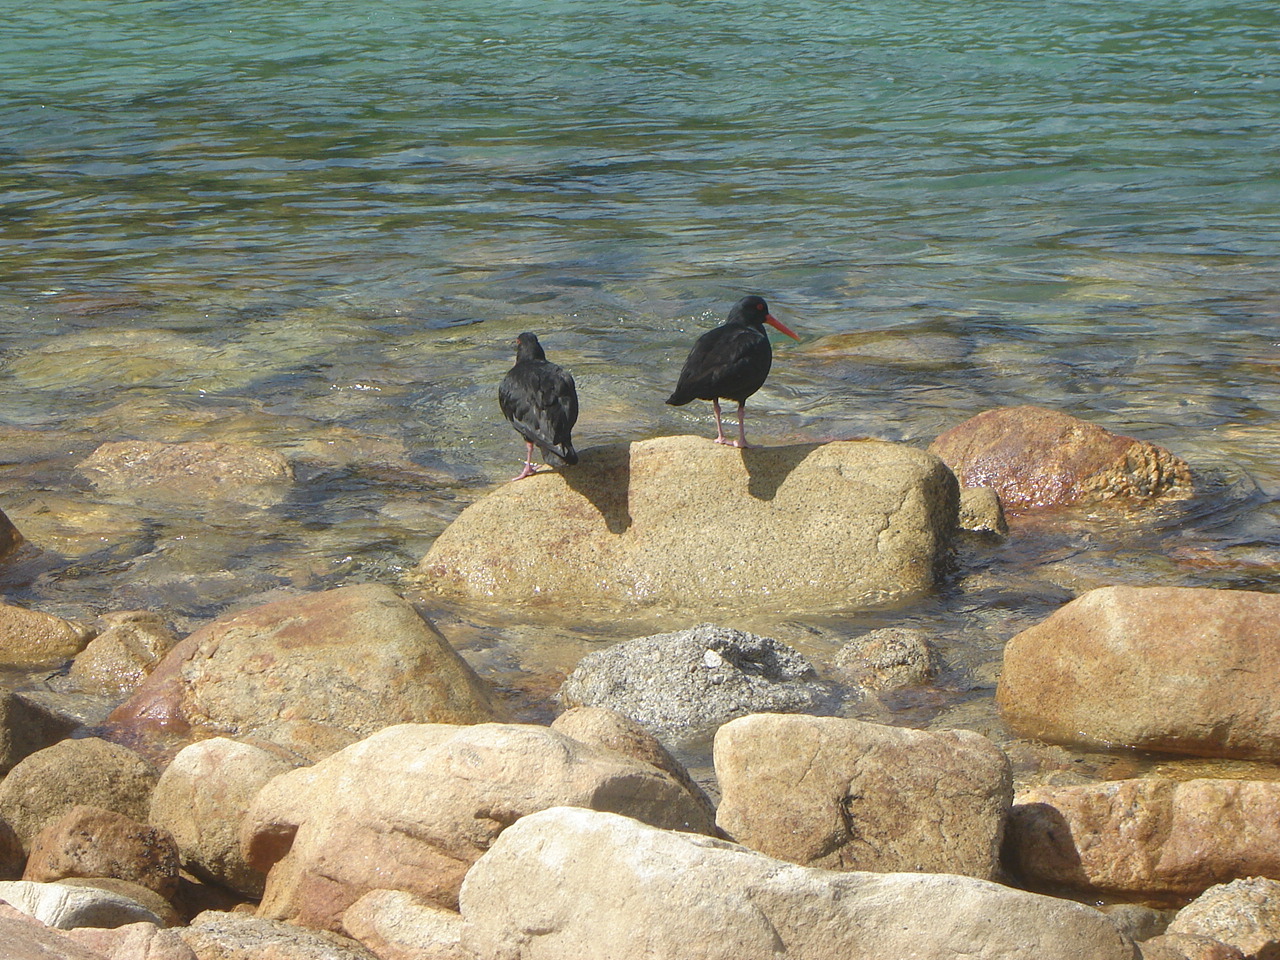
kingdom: Animalia
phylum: Chordata
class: Aves
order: Charadriiformes
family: Haematopodidae
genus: Haematopus
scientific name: Haematopus unicolor
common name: Variable oystercatcher
